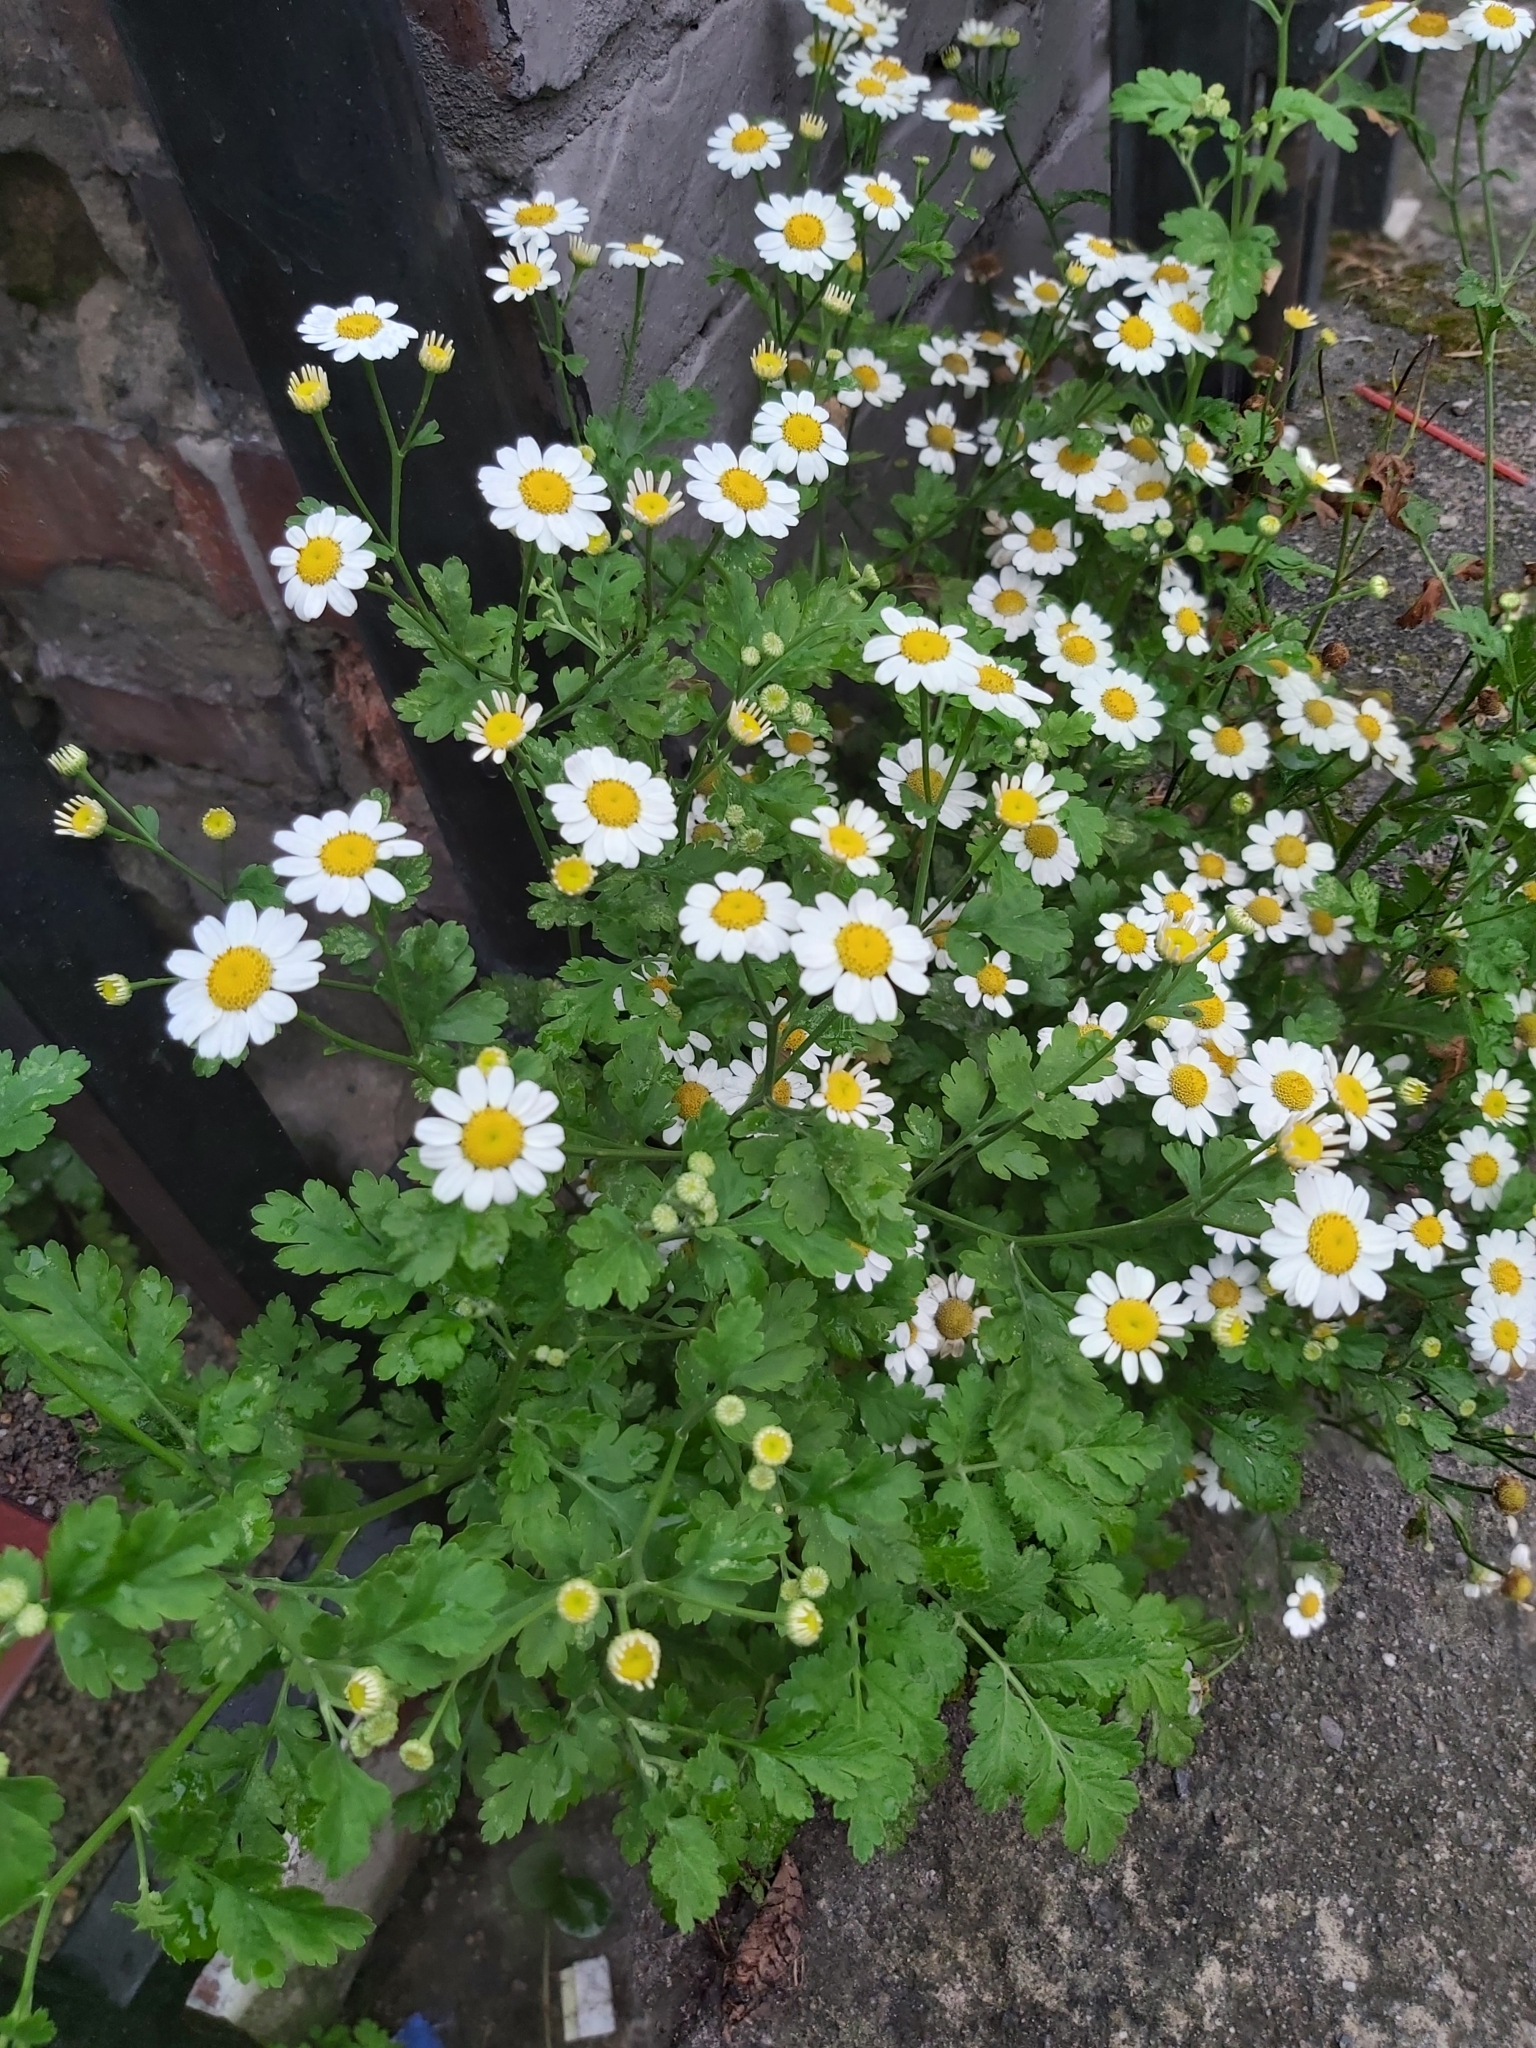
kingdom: Plantae
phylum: Tracheophyta
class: Magnoliopsida
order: Asterales
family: Asteraceae
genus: Tanacetum
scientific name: Tanacetum parthenium
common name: Feverfew
